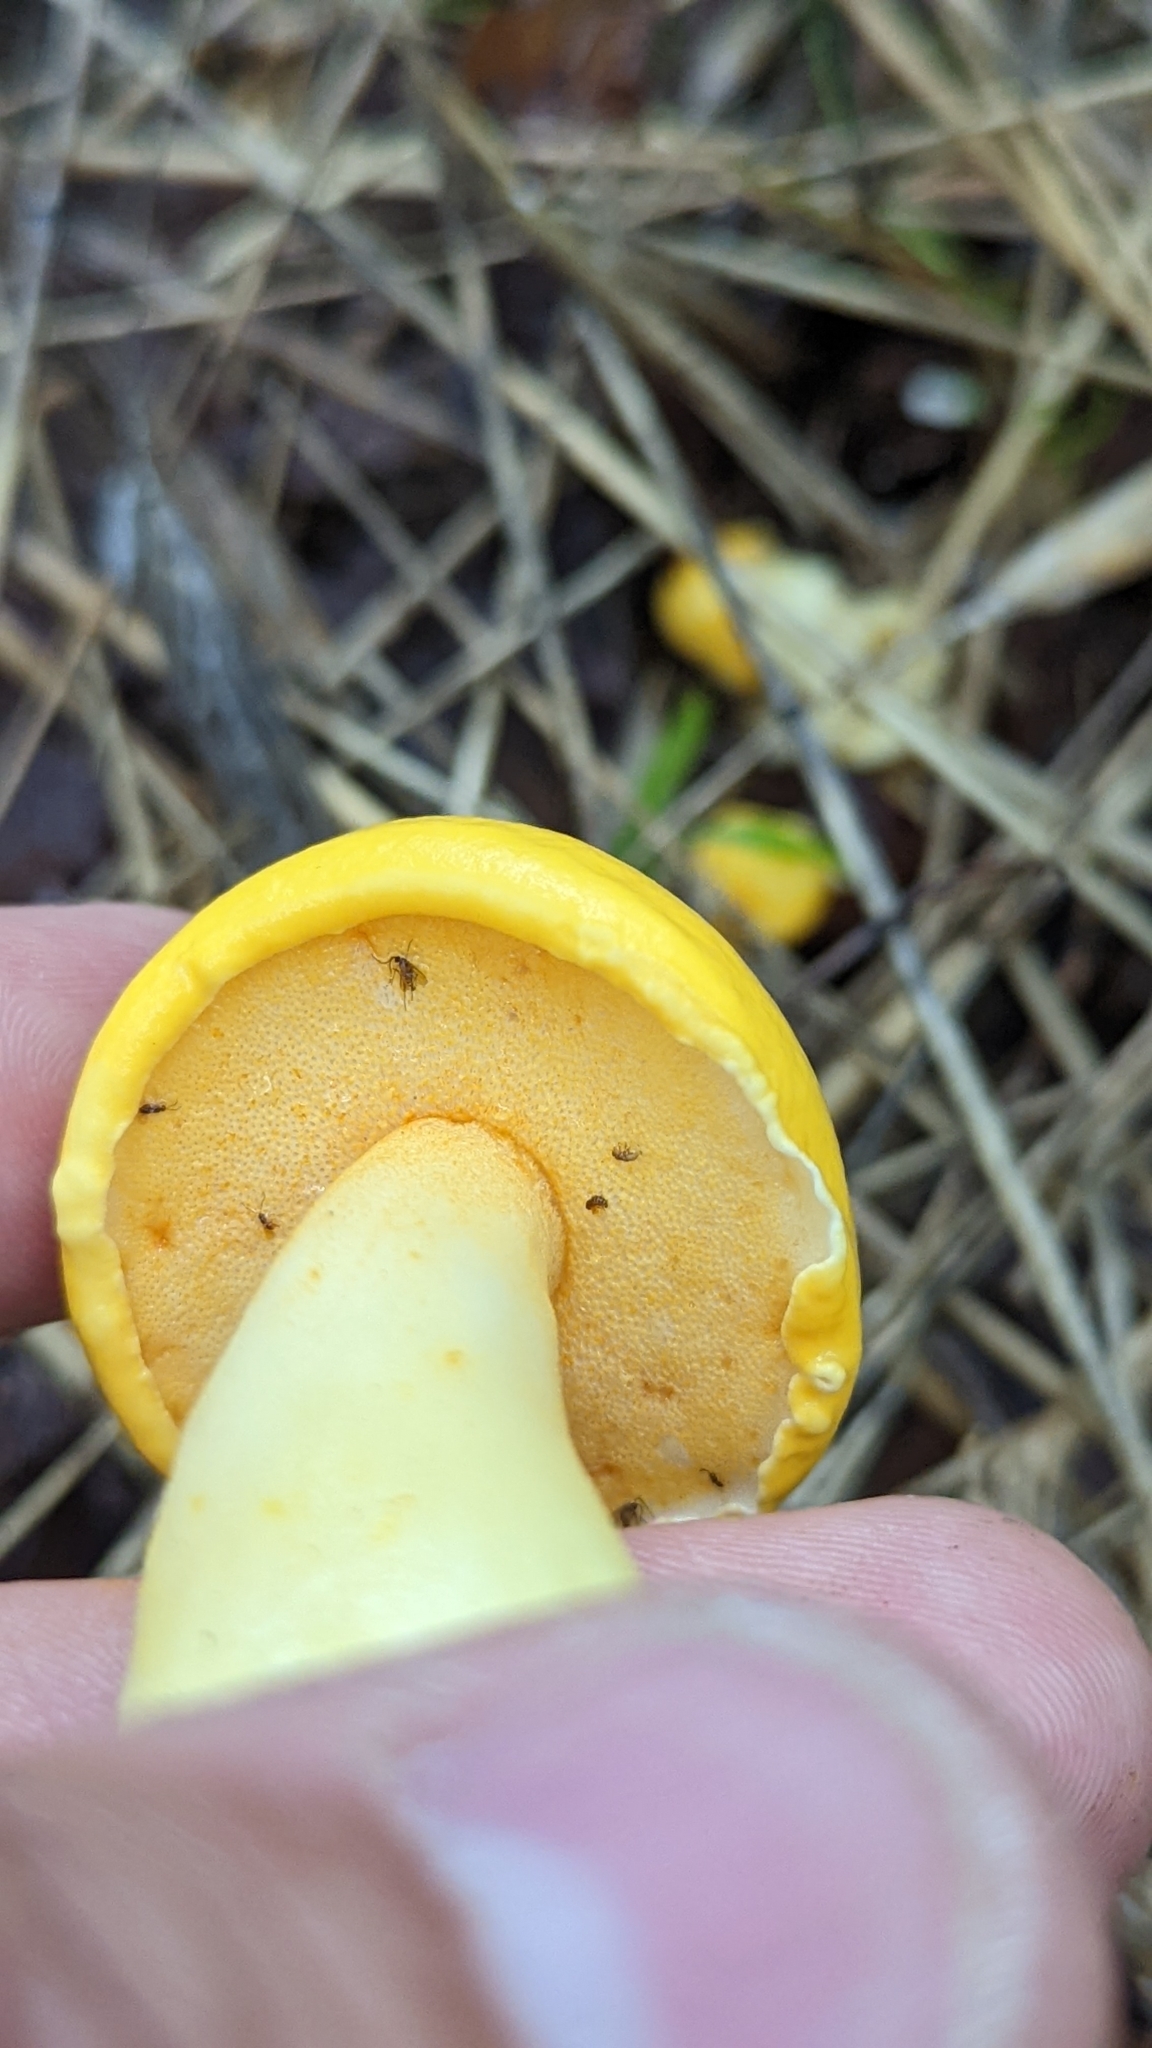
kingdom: Fungi
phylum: Basidiomycota
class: Agaricomycetes
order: Boletales
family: Boletaceae
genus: Pulveroboletus
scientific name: Pulveroboletus curtisii
